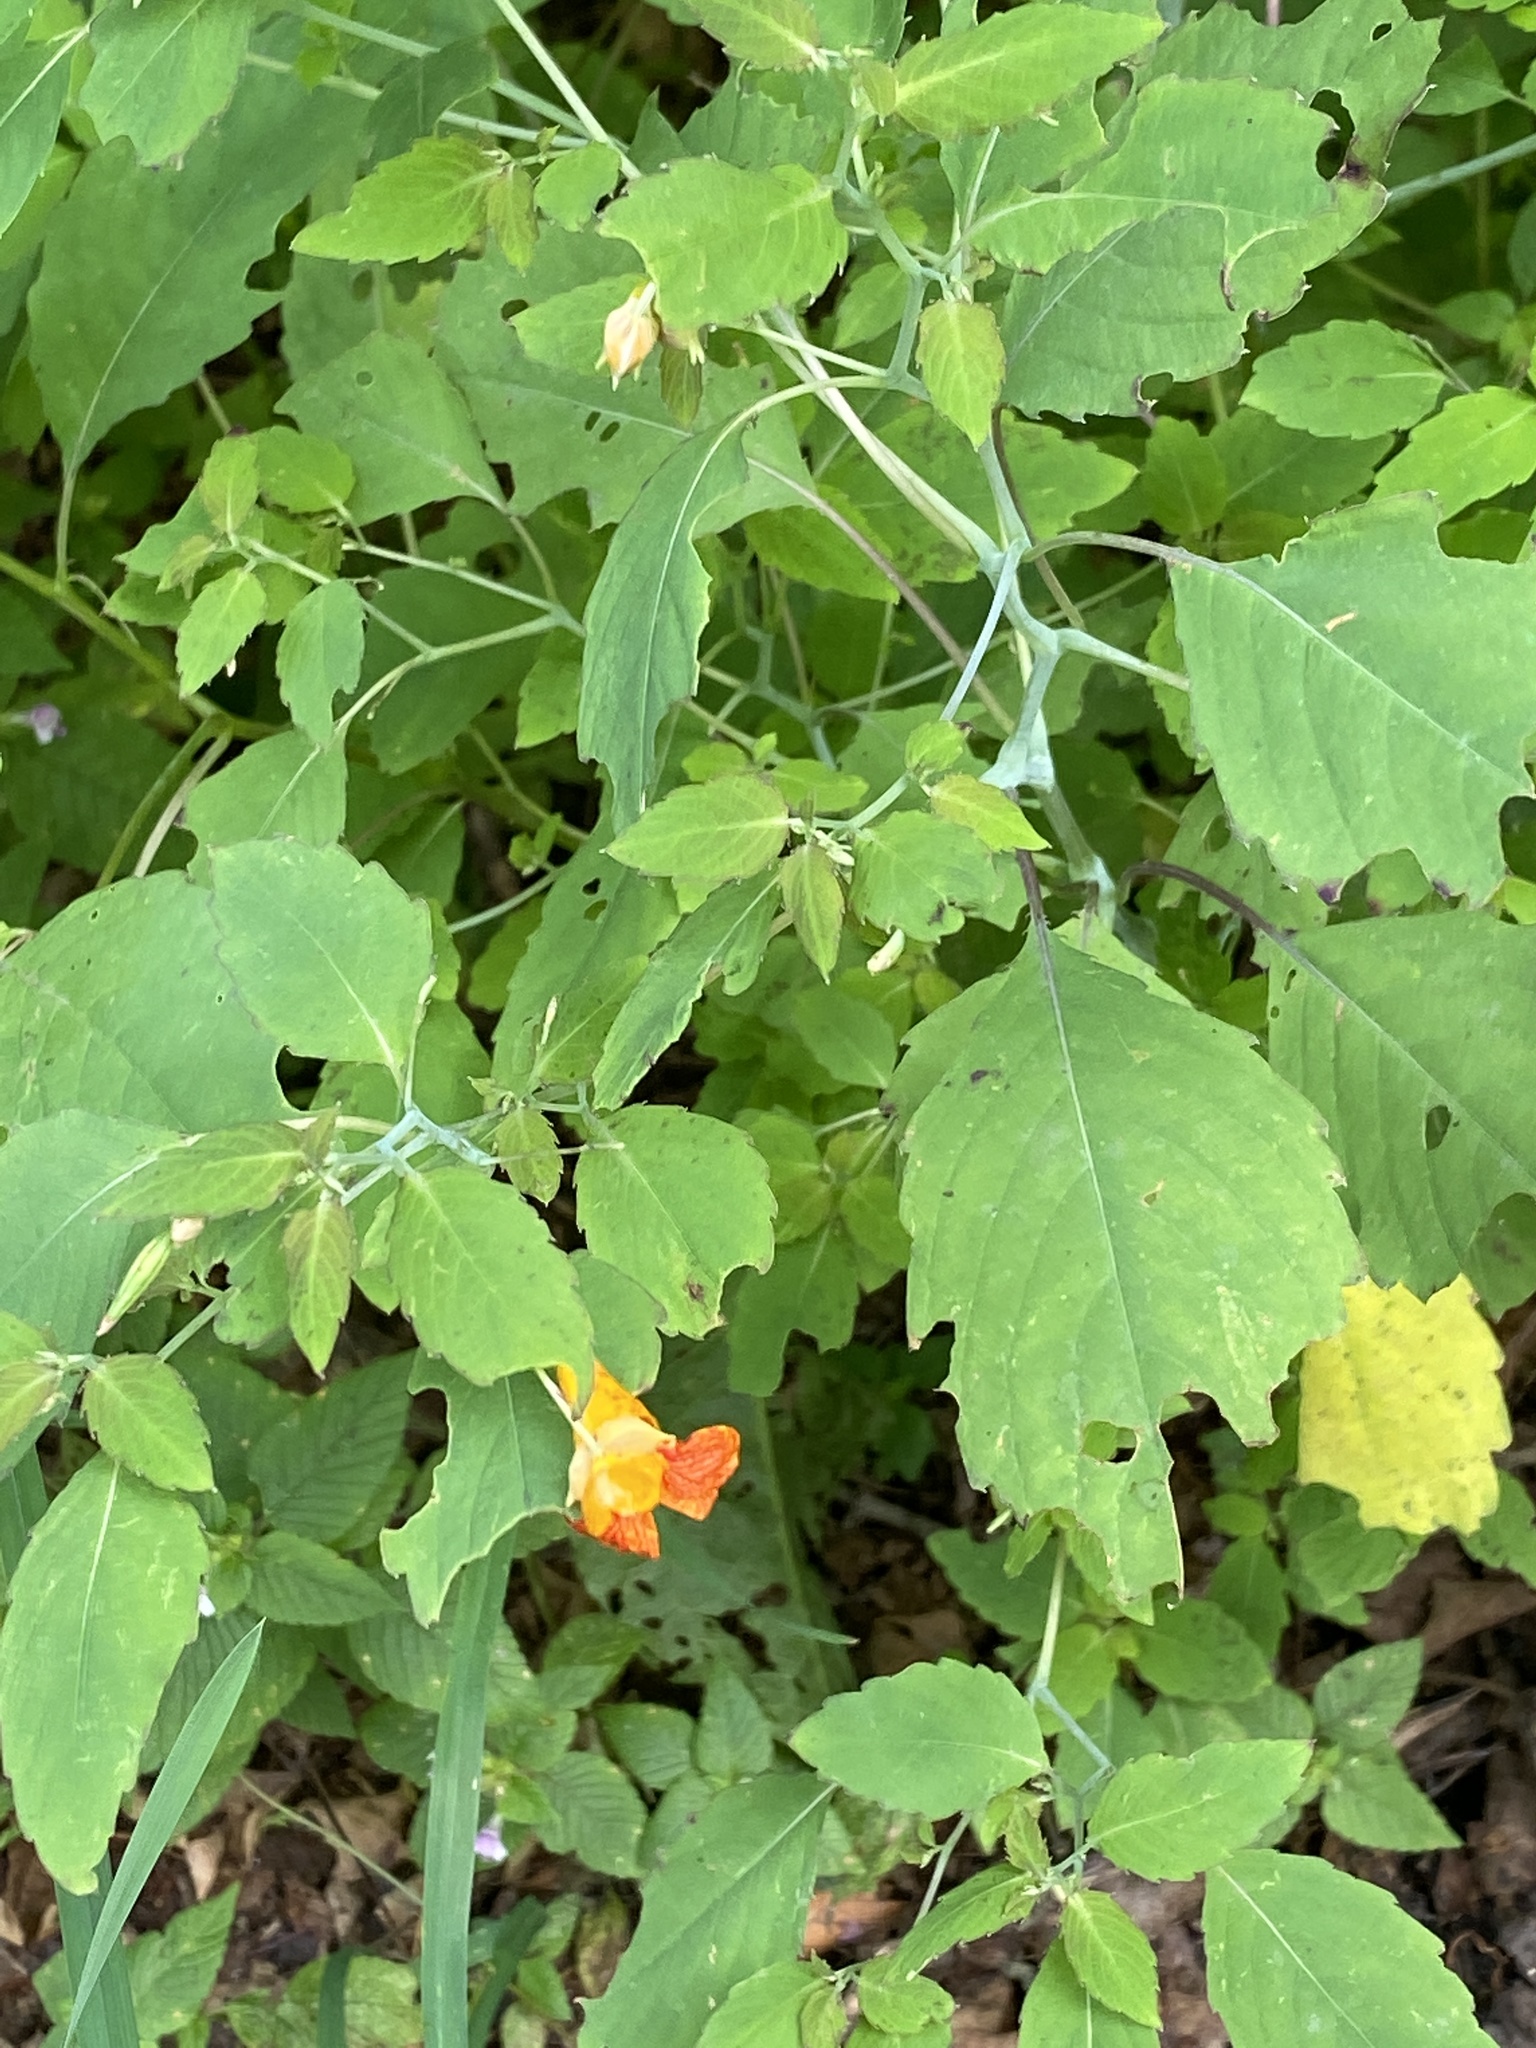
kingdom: Plantae
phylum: Tracheophyta
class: Magnoliopsida
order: Ericales
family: Balsaminaceae
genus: Impatiens
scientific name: Impatiens capensis
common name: Orange balsam
